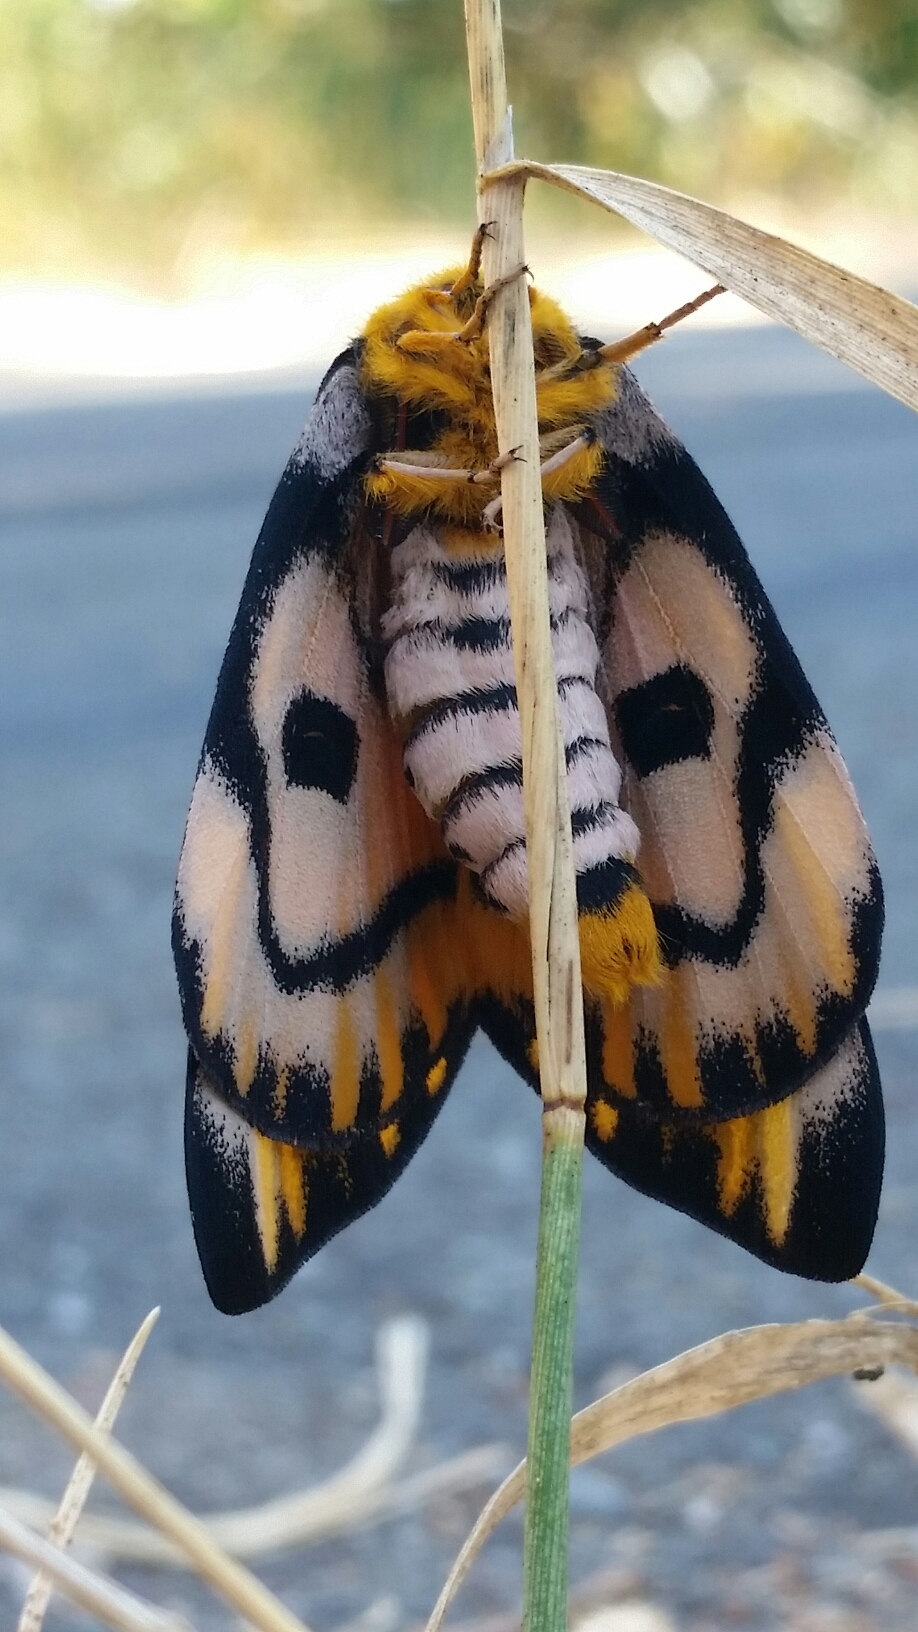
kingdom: Animalia
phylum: Arthropoda
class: Insecta
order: Lepidoptera
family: Saturniidae
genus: Hemileuca
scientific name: Hemileuca eglanterina
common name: Western sheepmoth
